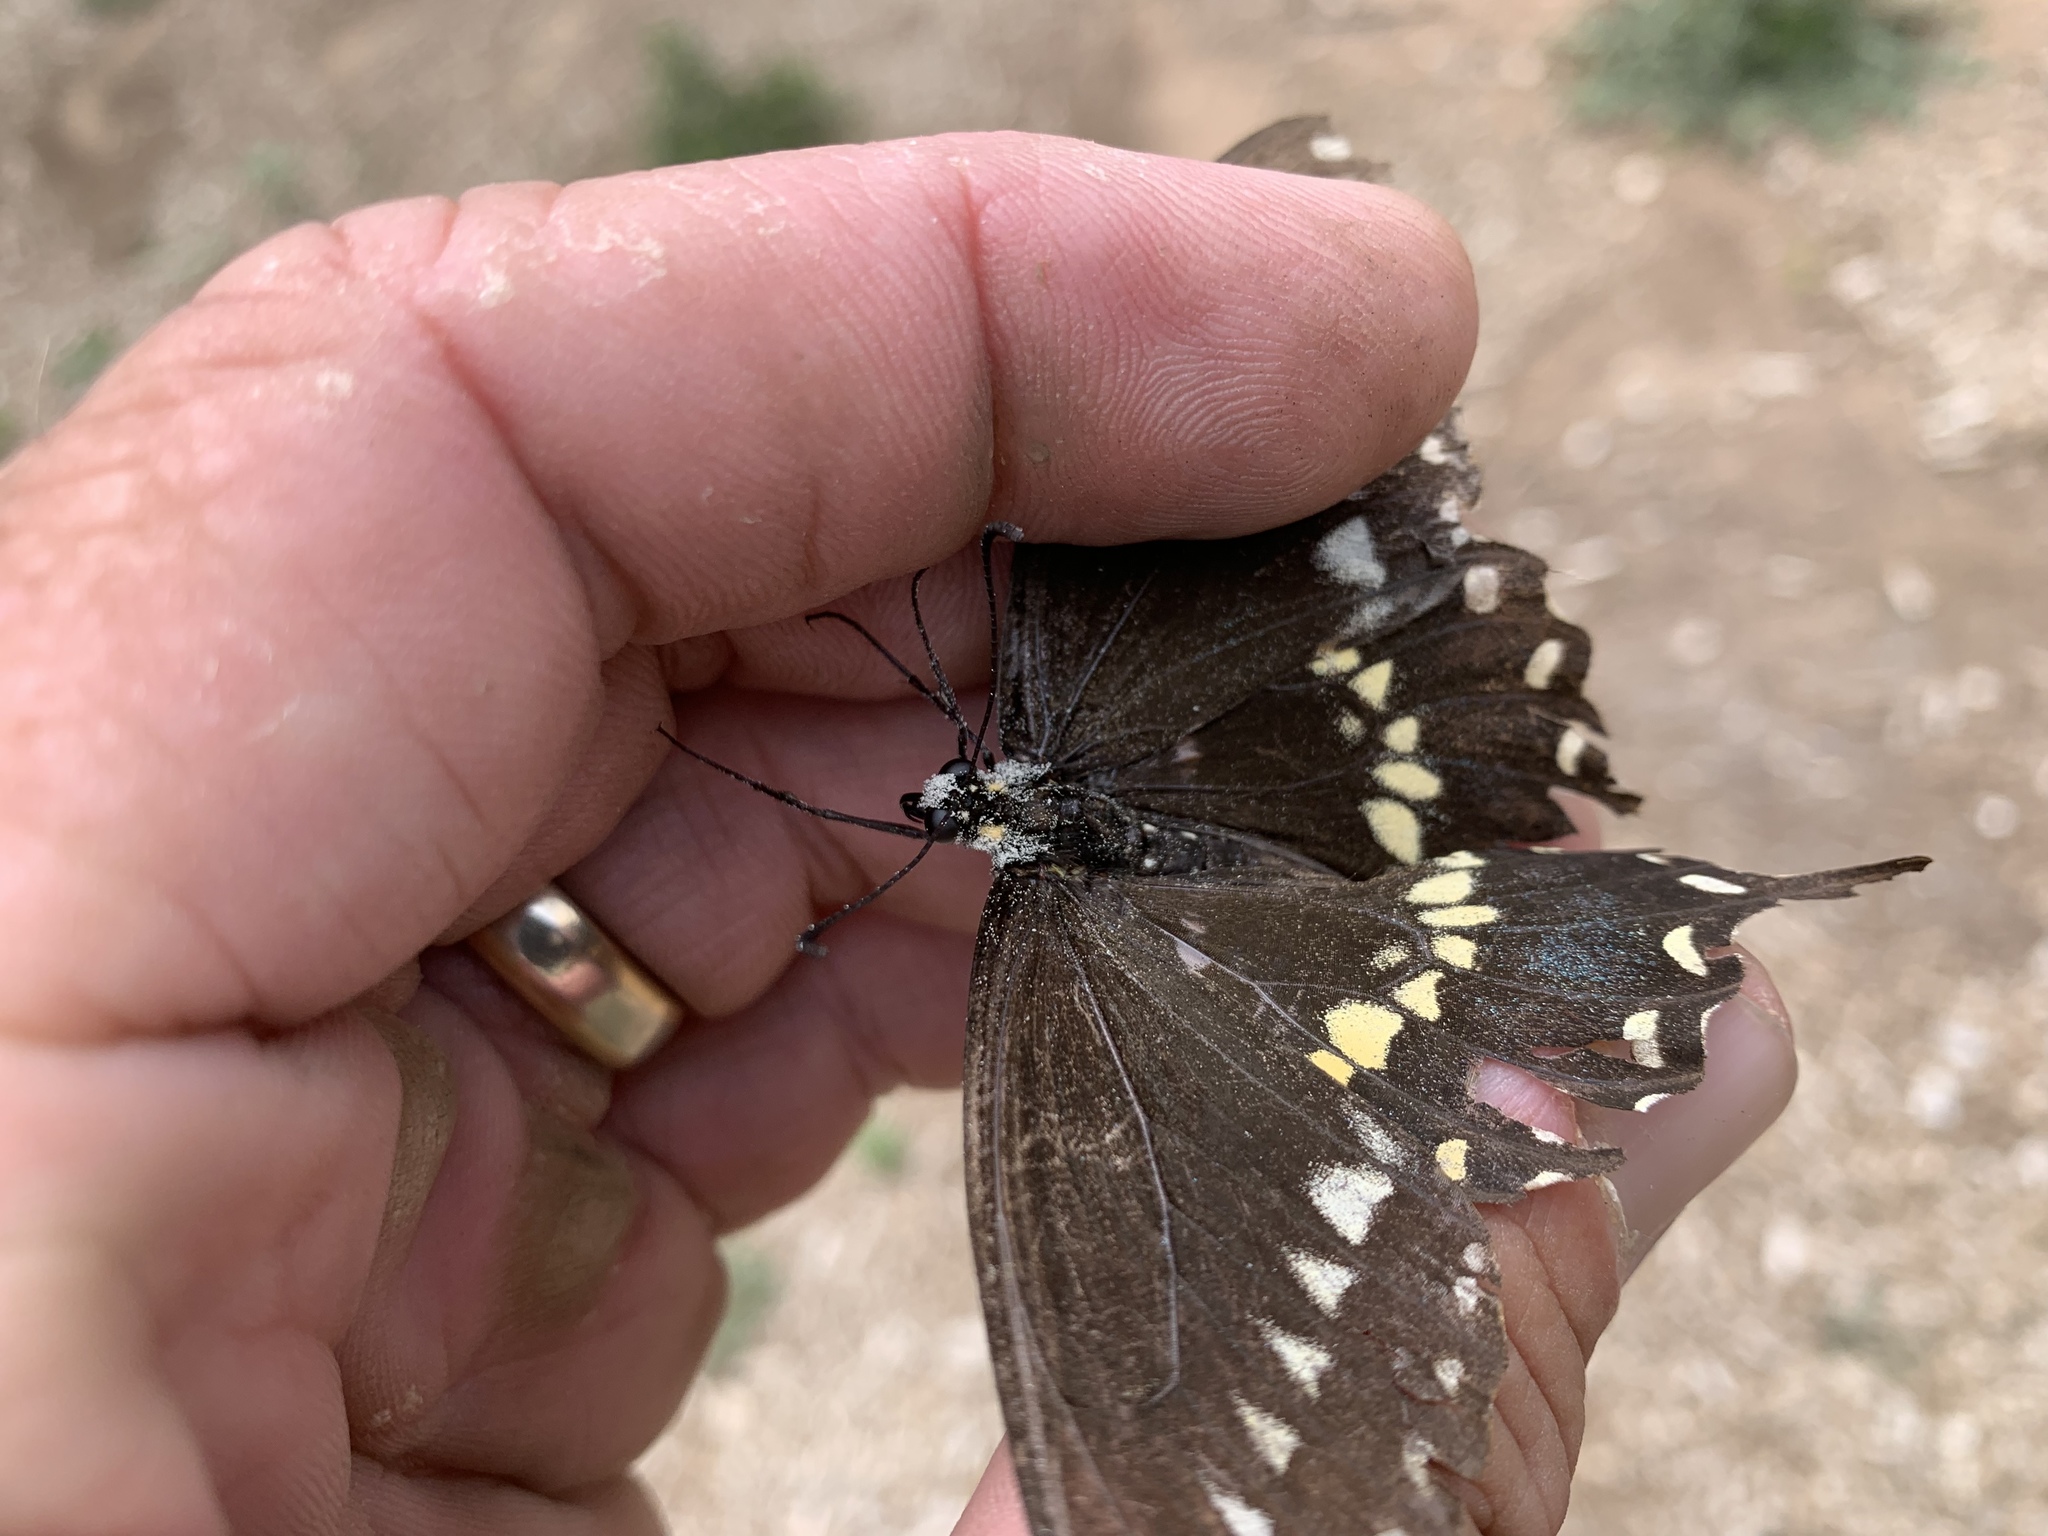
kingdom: Animalia
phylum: Arthropoda
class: Insecta
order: Lepidoptera
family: Papilionidae
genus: Papilio
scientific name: Papilio polyxenes
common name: Black swallowtail
